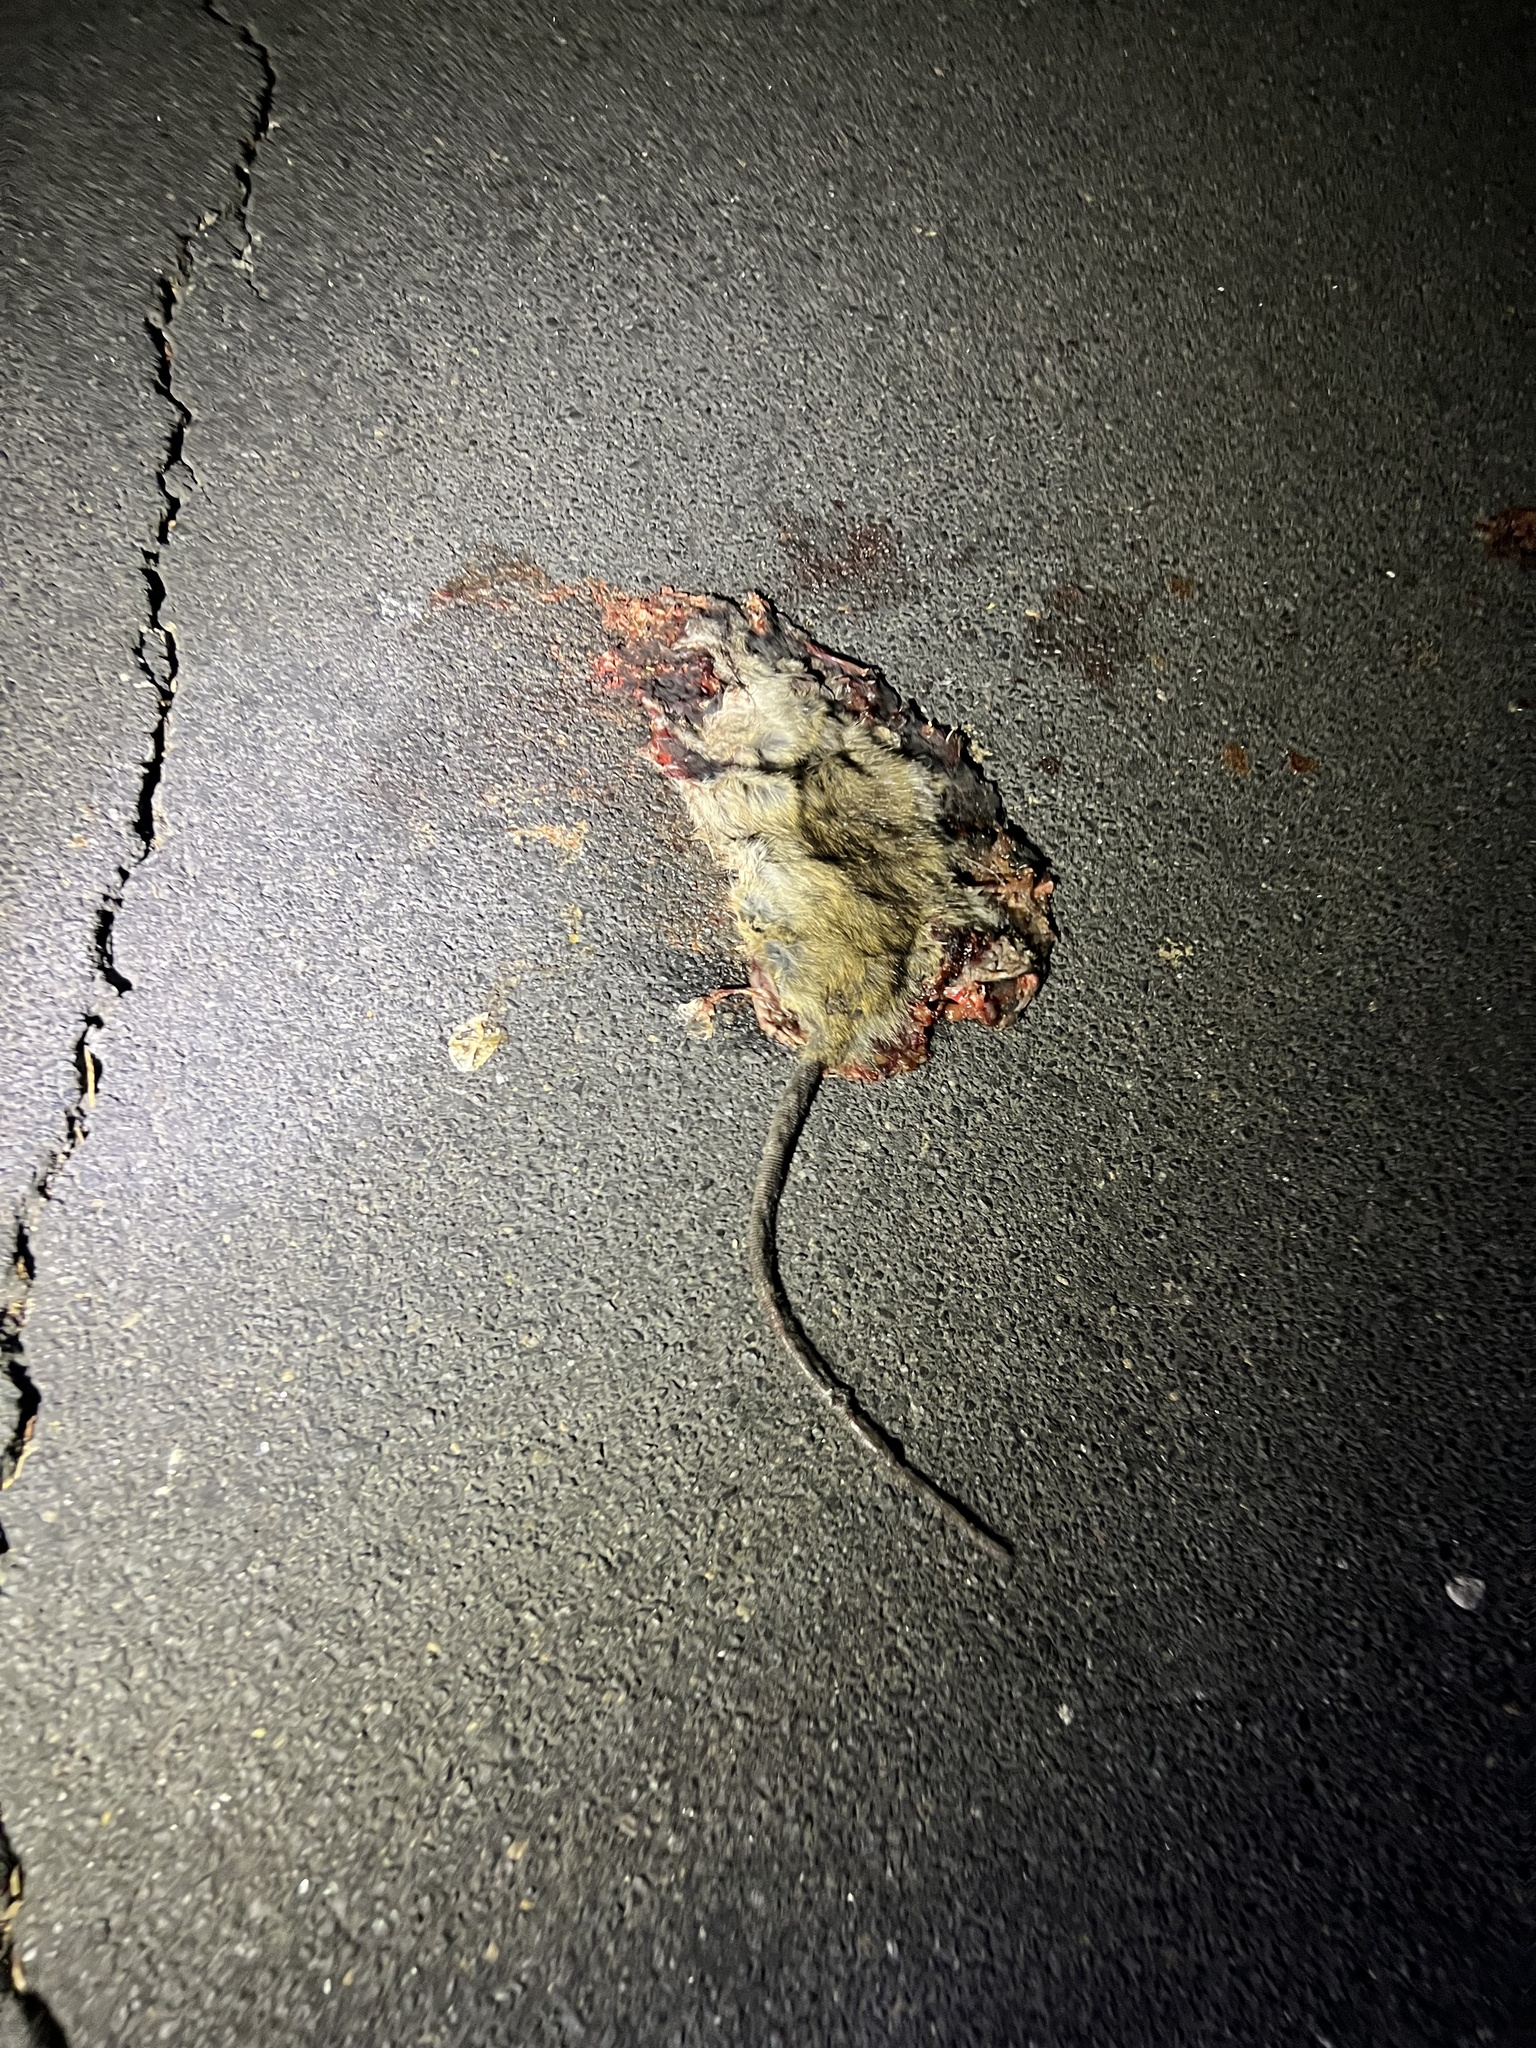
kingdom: Animalia
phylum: Chordata
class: Mammalia
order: Rodentia
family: Muridae
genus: Rattus
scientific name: Rattus norvegicus
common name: Brown rat
